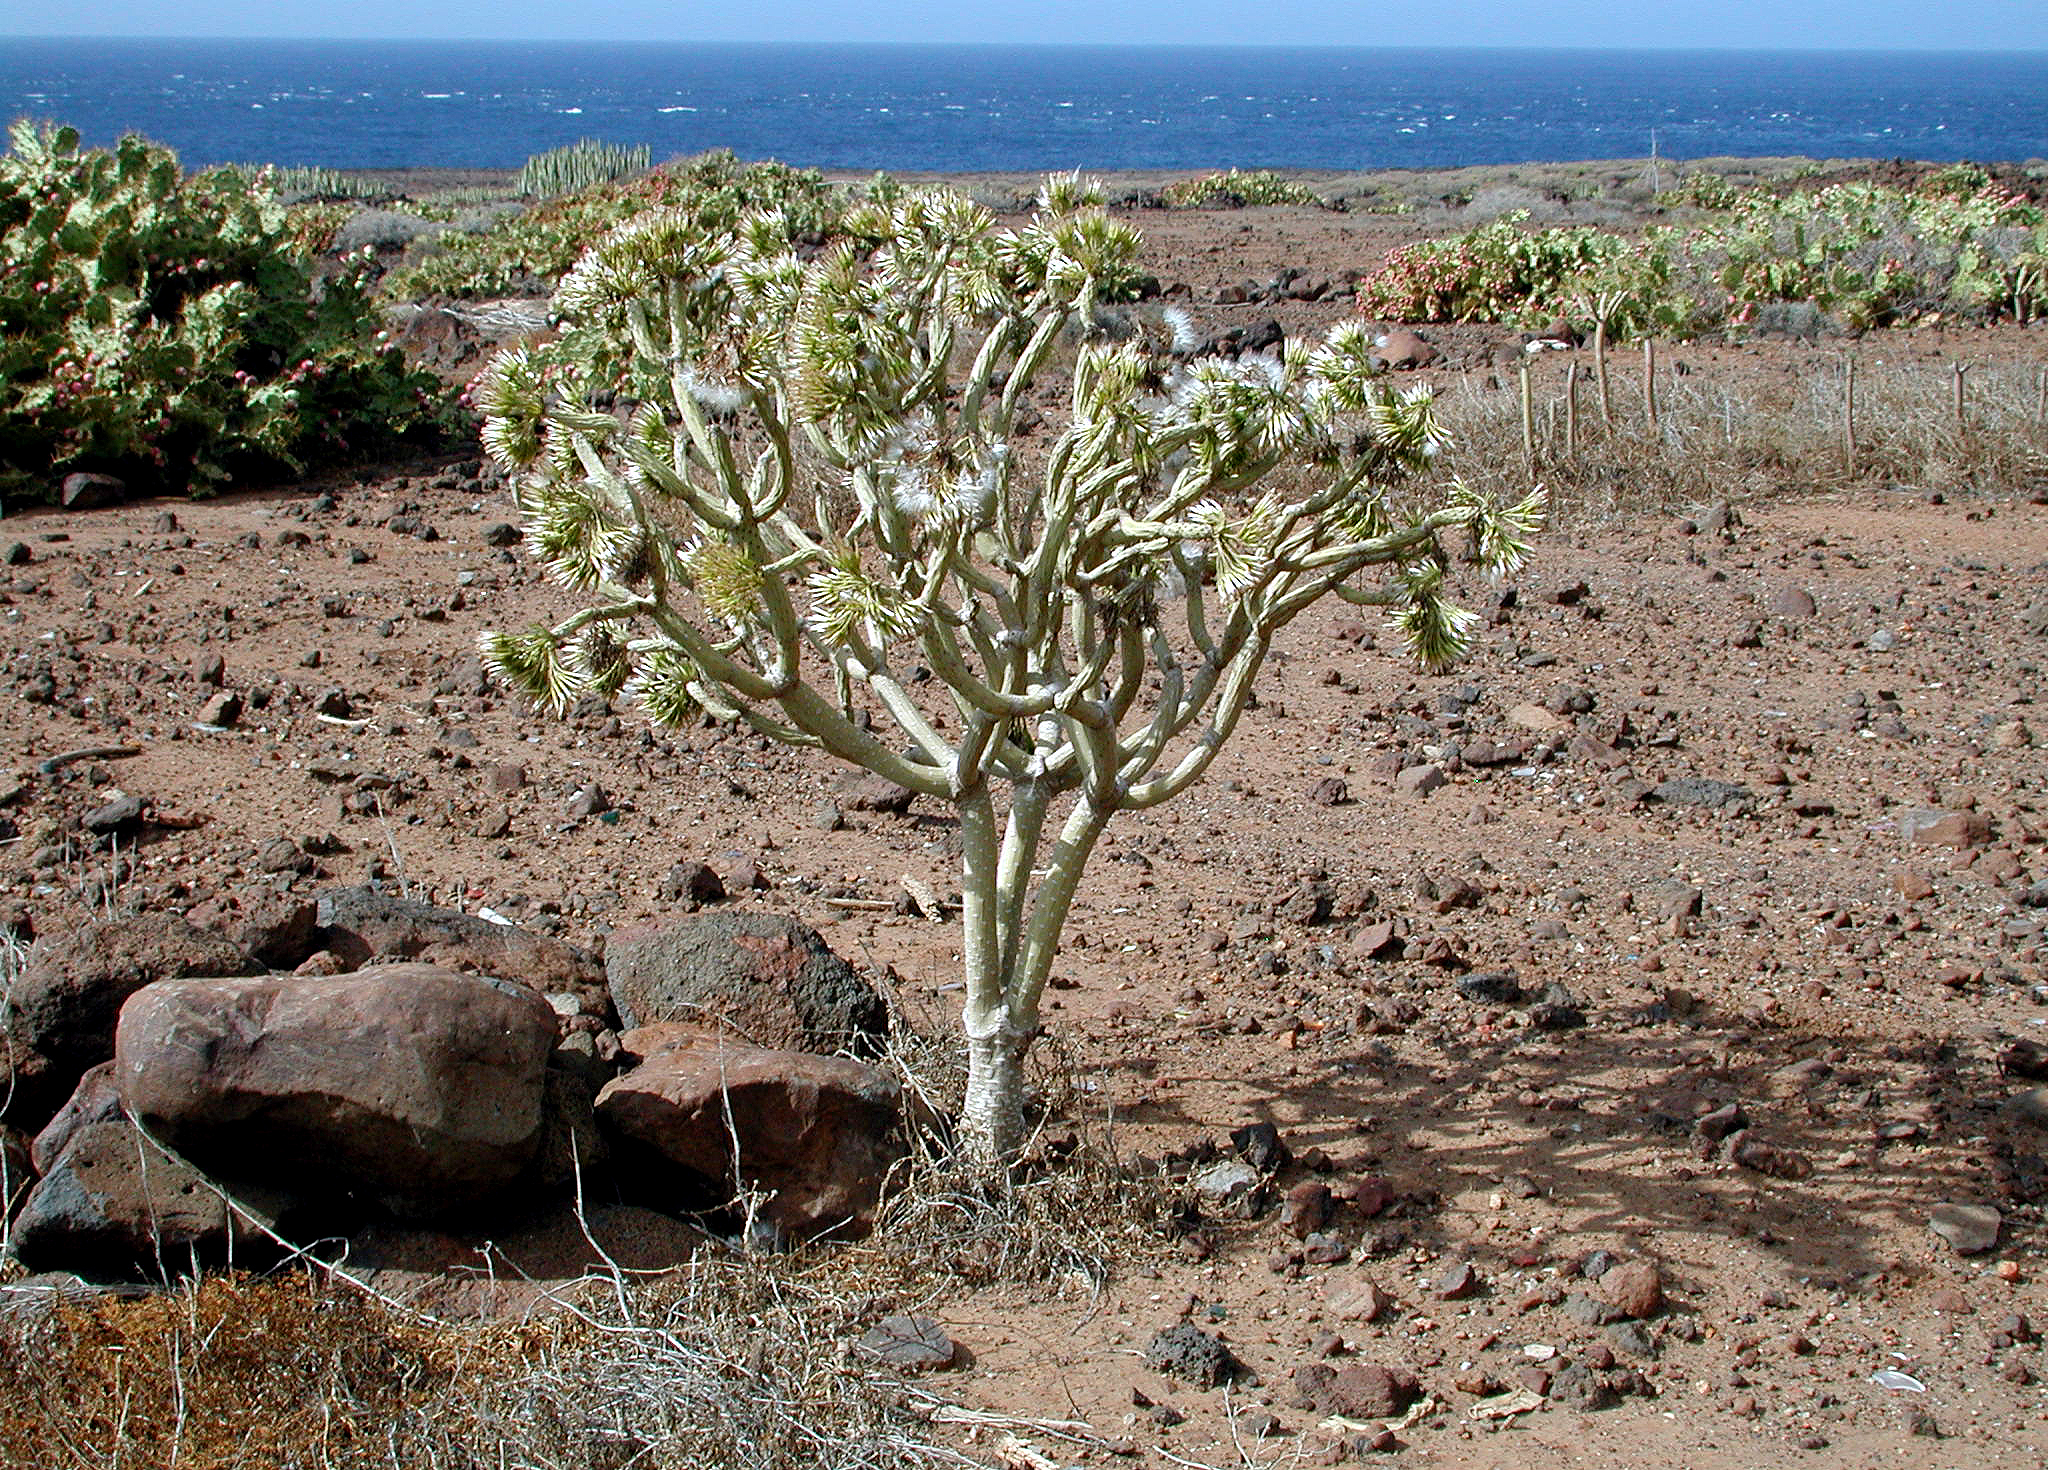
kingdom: Plantae
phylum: Tracheophyta
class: Magnoliopsida
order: Asterales
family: Asteraceae
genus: Kleinia
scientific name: Kleinia neriifolia
